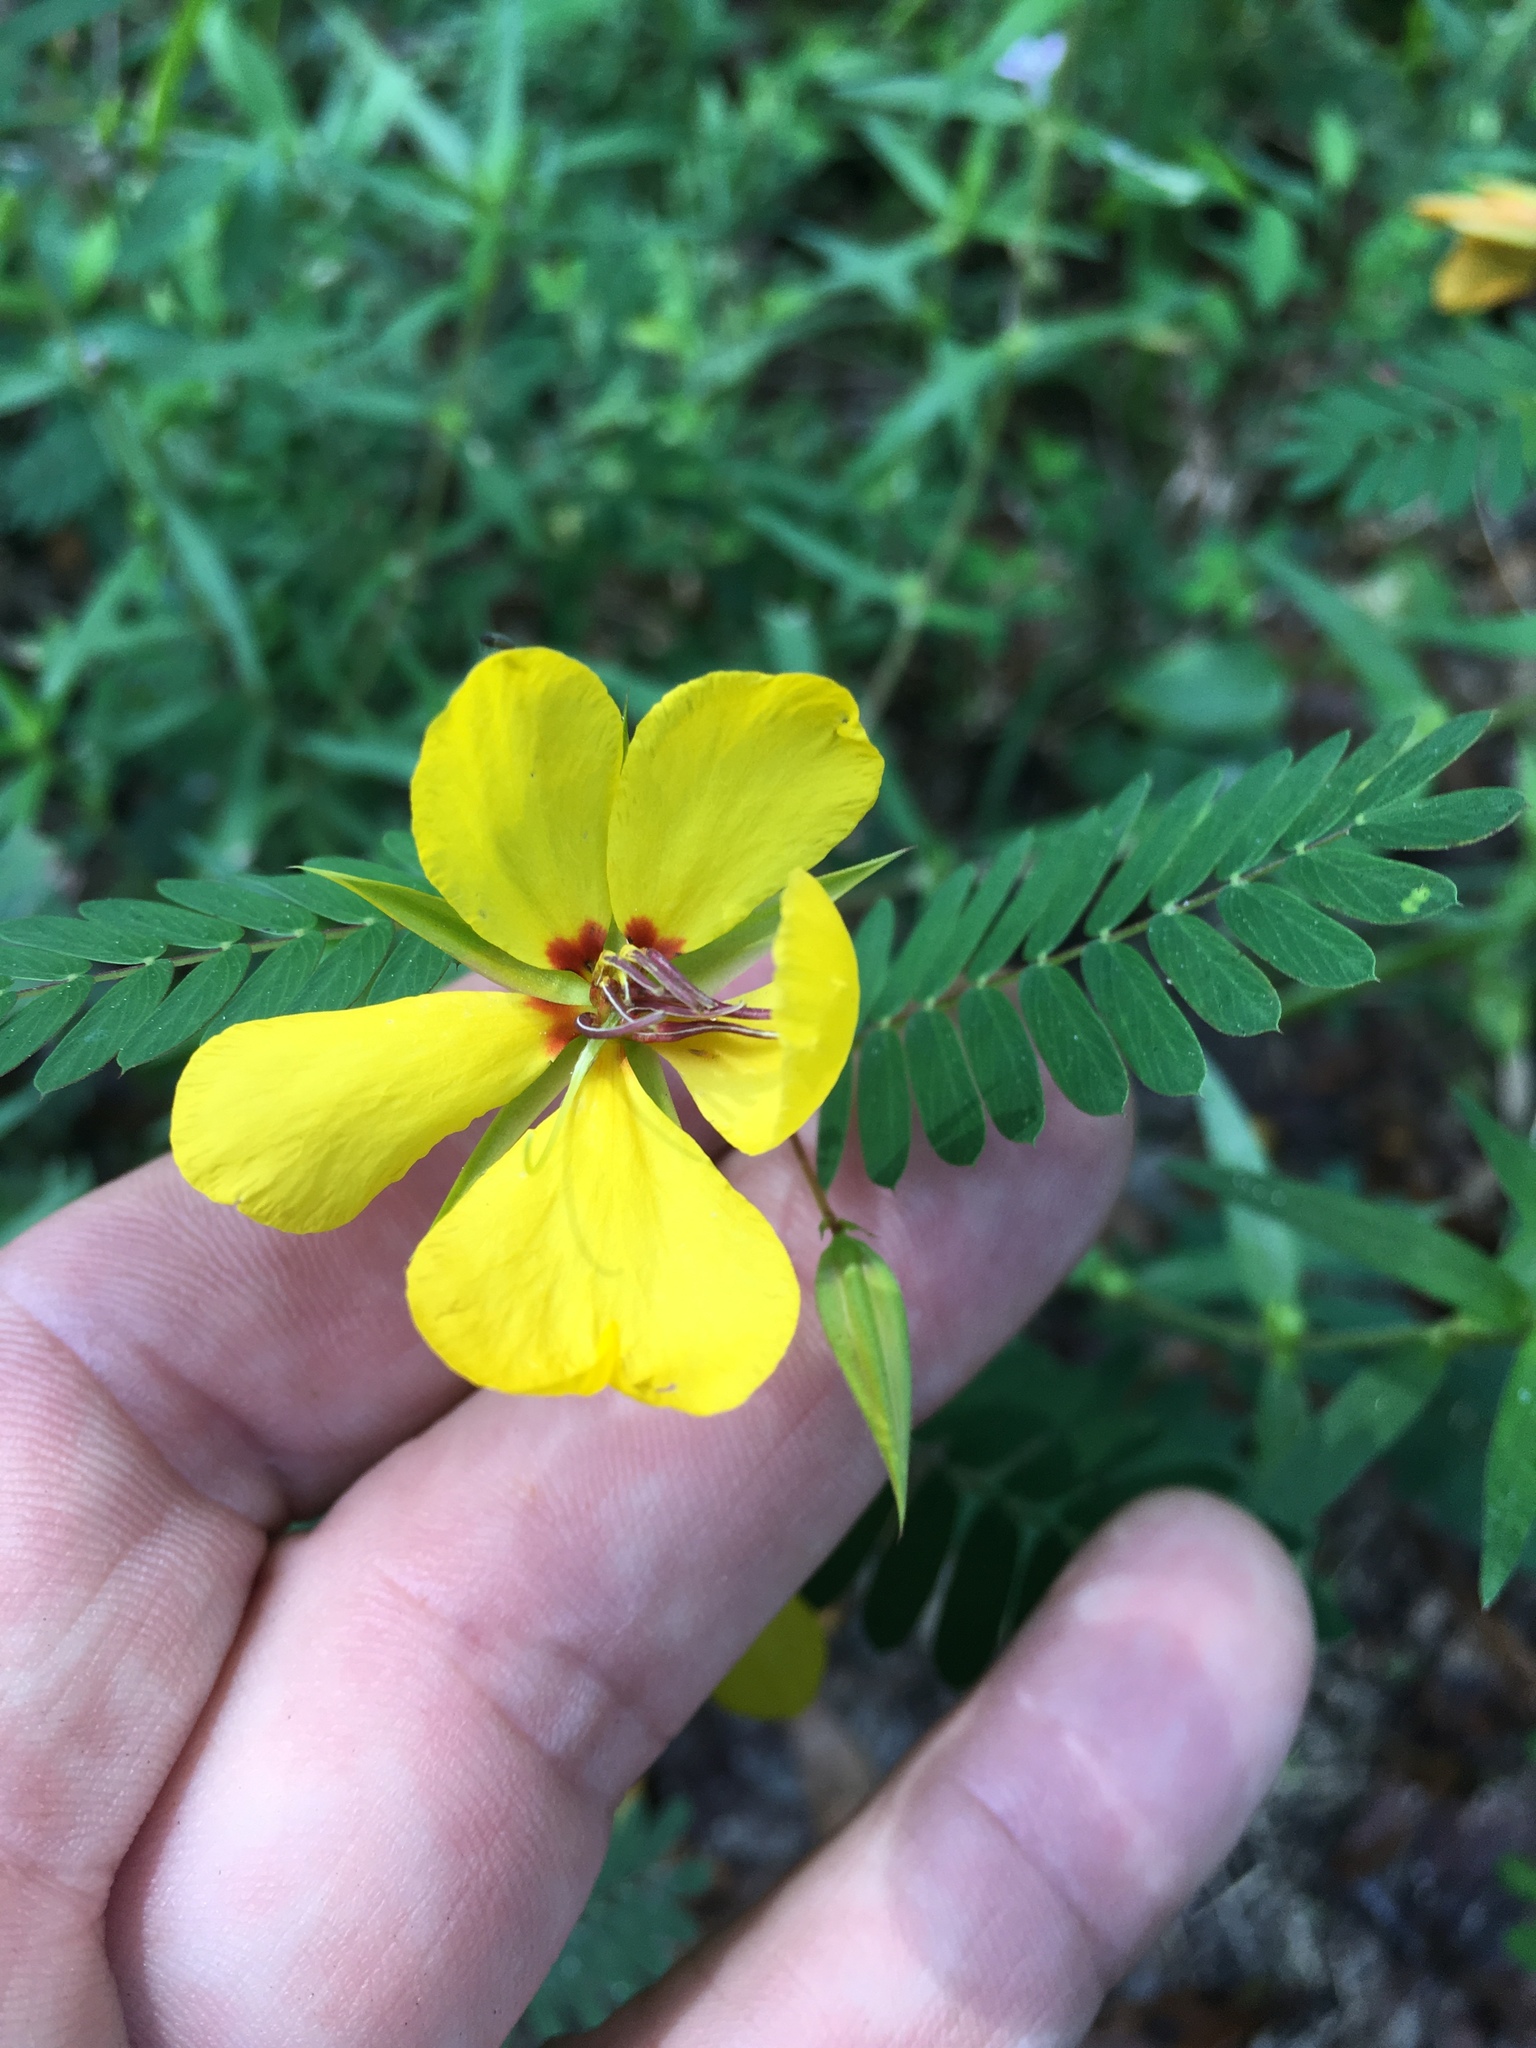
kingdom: Plantae
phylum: Tracheophyta
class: Magnoliopsida
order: Fabales
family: Fabaceae
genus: Chamaecrista
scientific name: Chamaecrista fasciculata
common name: Golden cassia
